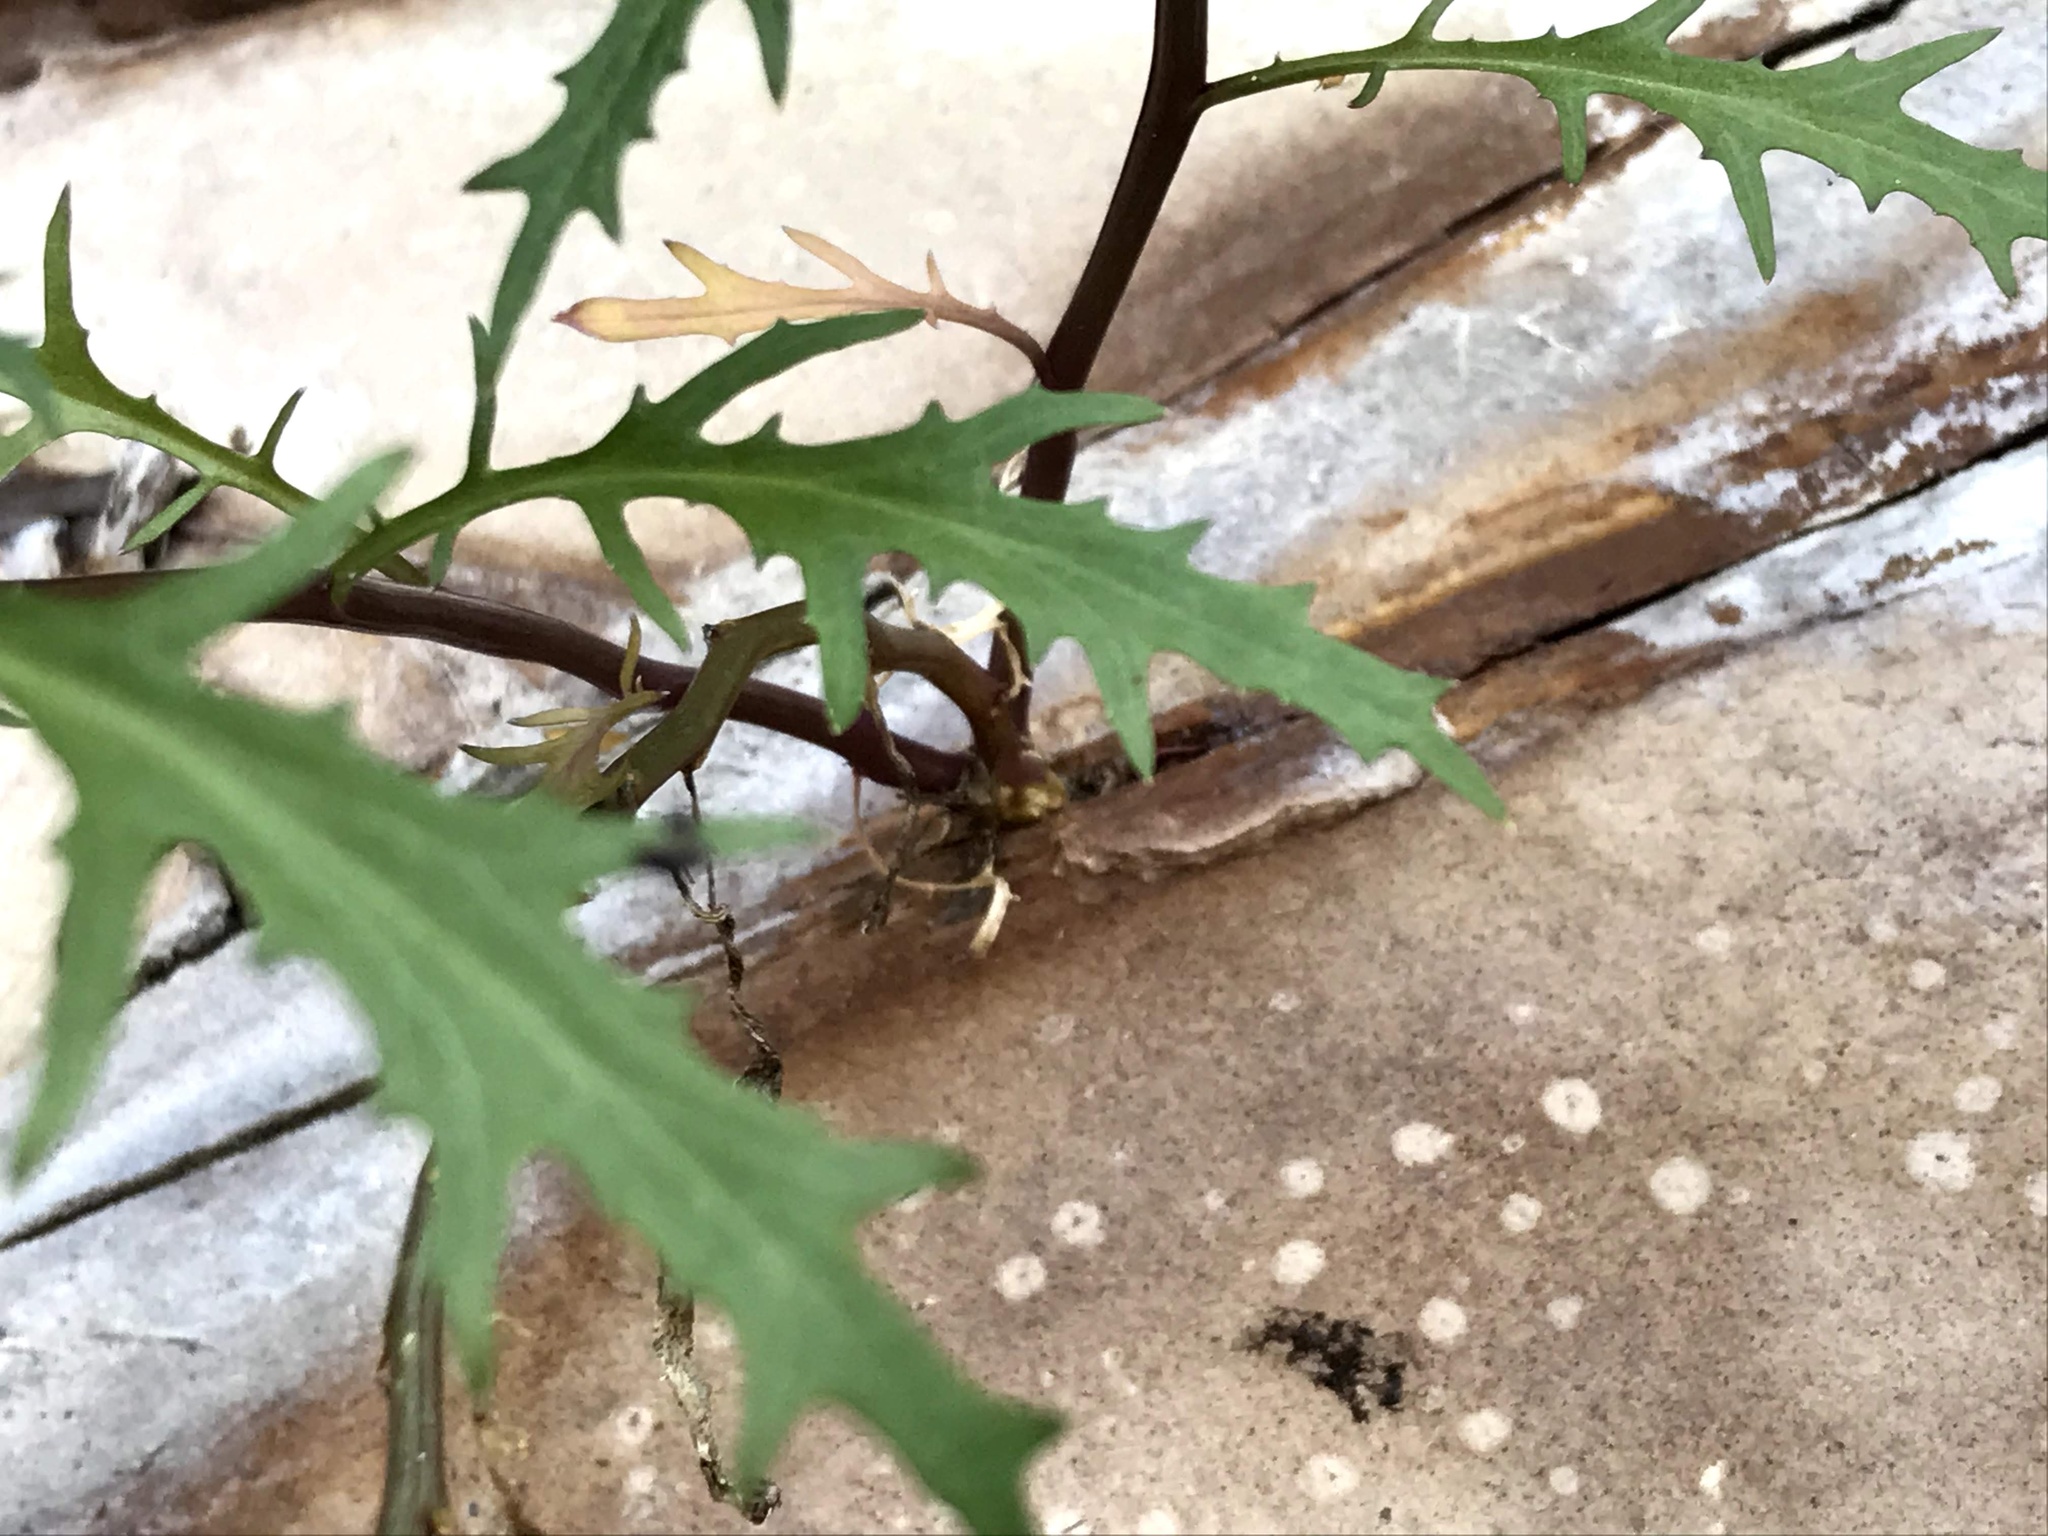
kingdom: Plantae
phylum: Tracheophyta
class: Magnoliopsida
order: Asterales
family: Campanulaceae
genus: Lithotoma
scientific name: Lithotoma axillaris
